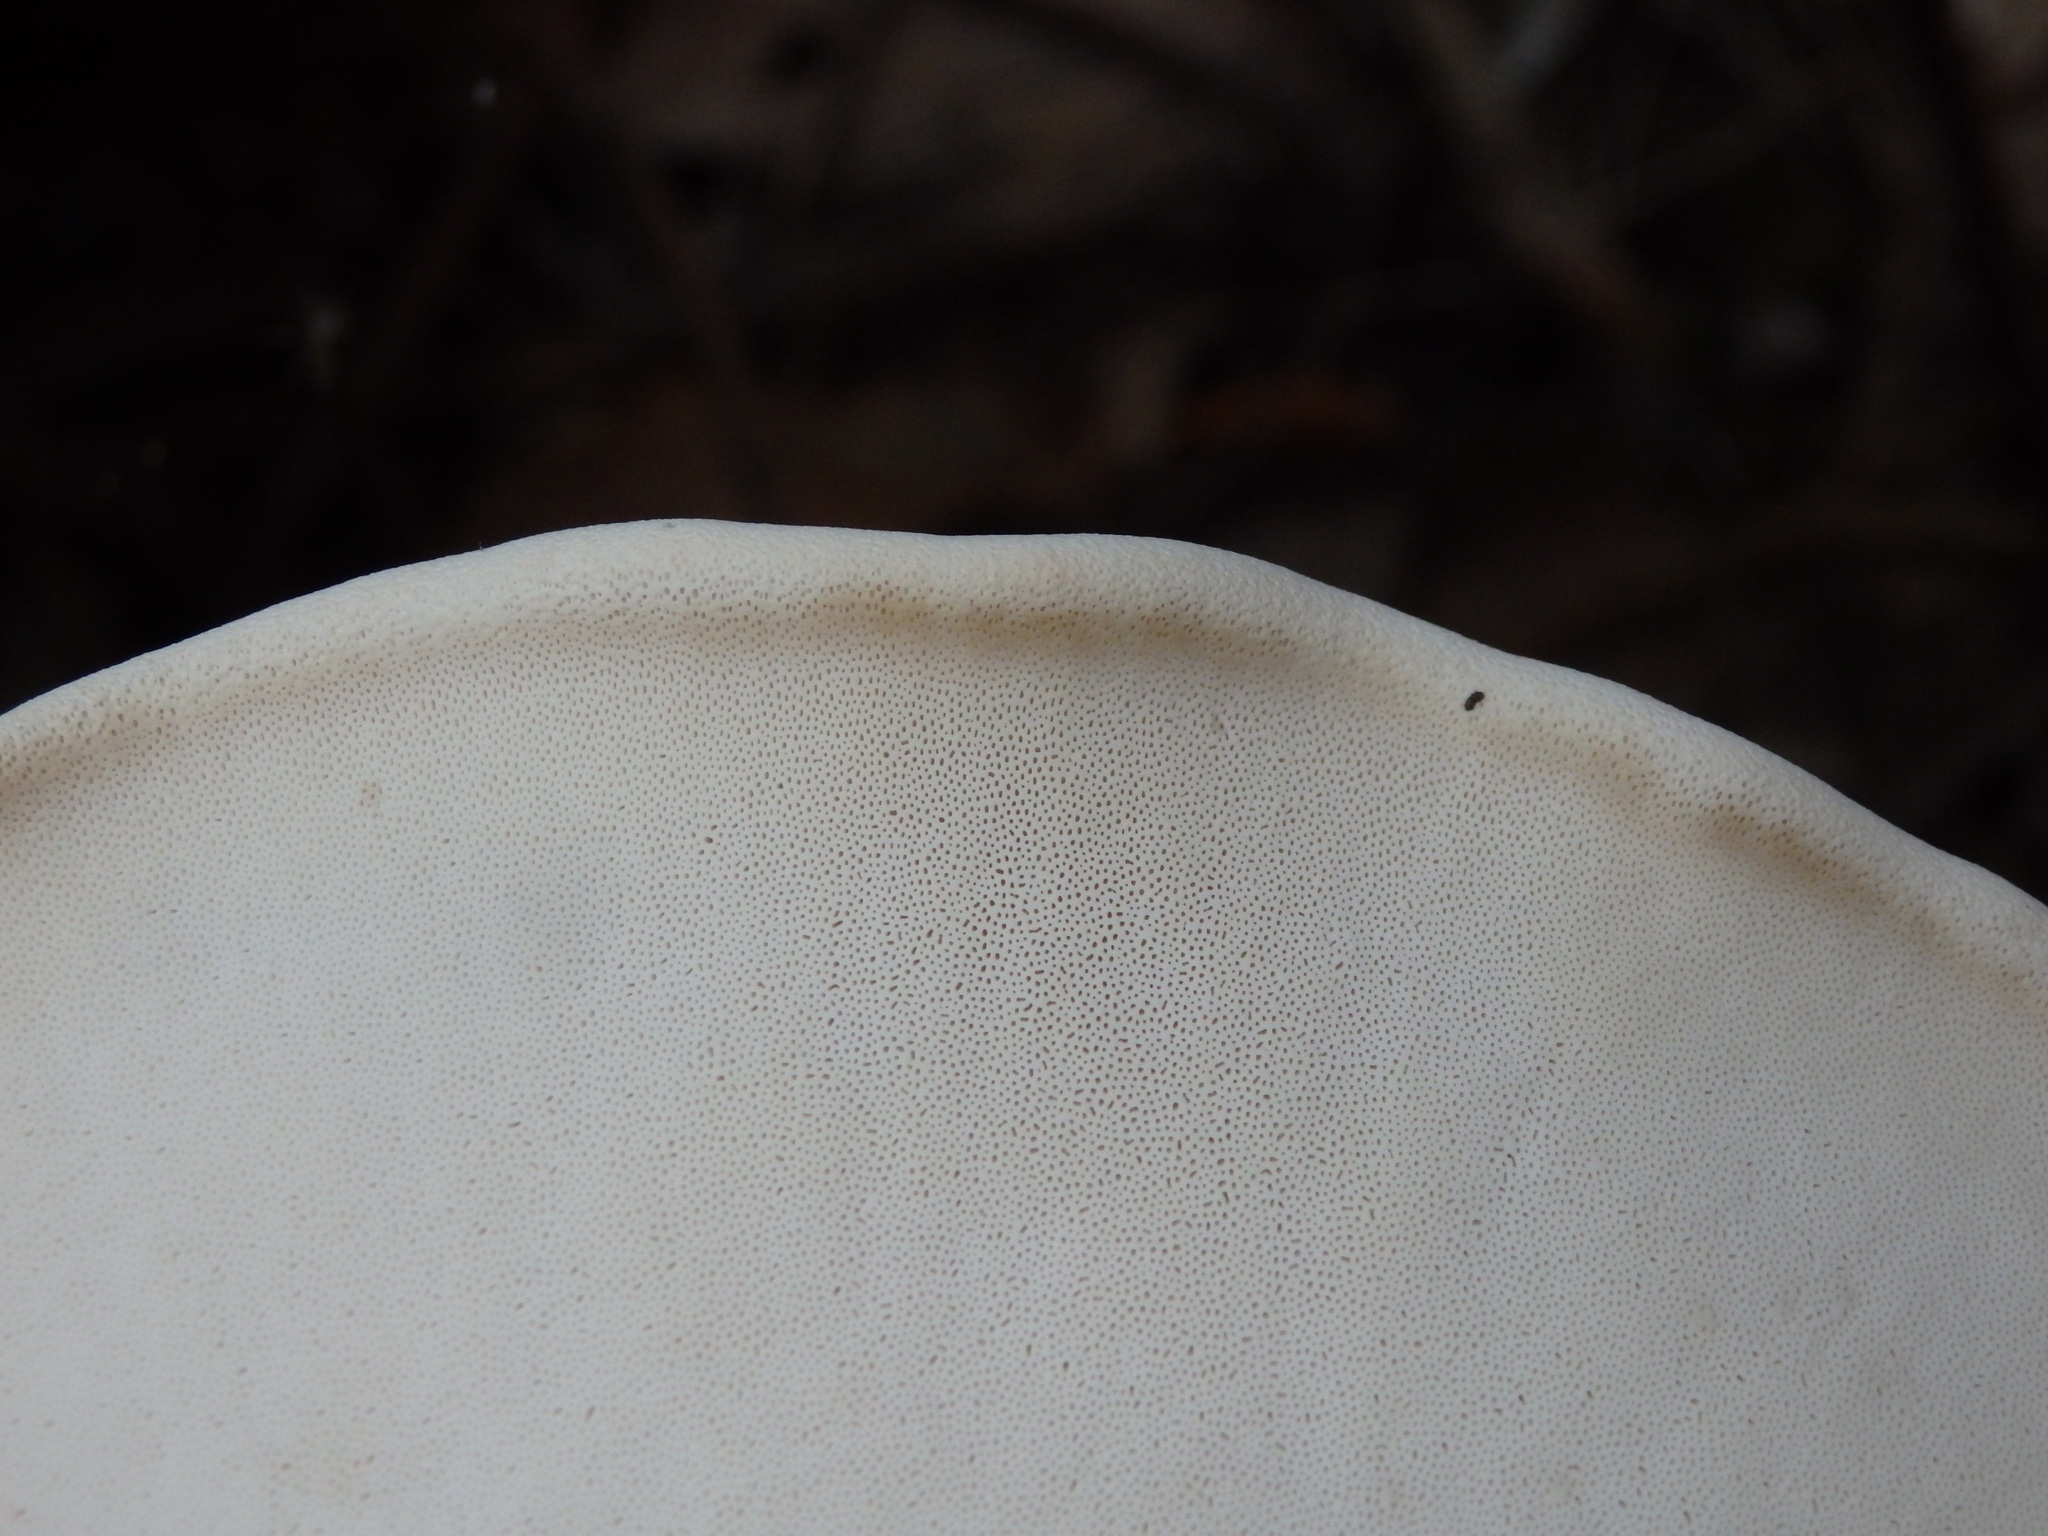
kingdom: Fungi
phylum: Basidiomycota
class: Agaricomycetes
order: Polyporales
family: Fomitopsidaceae
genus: Fomitopsis
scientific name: Fomitopsis betulina
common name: Birch polypore
